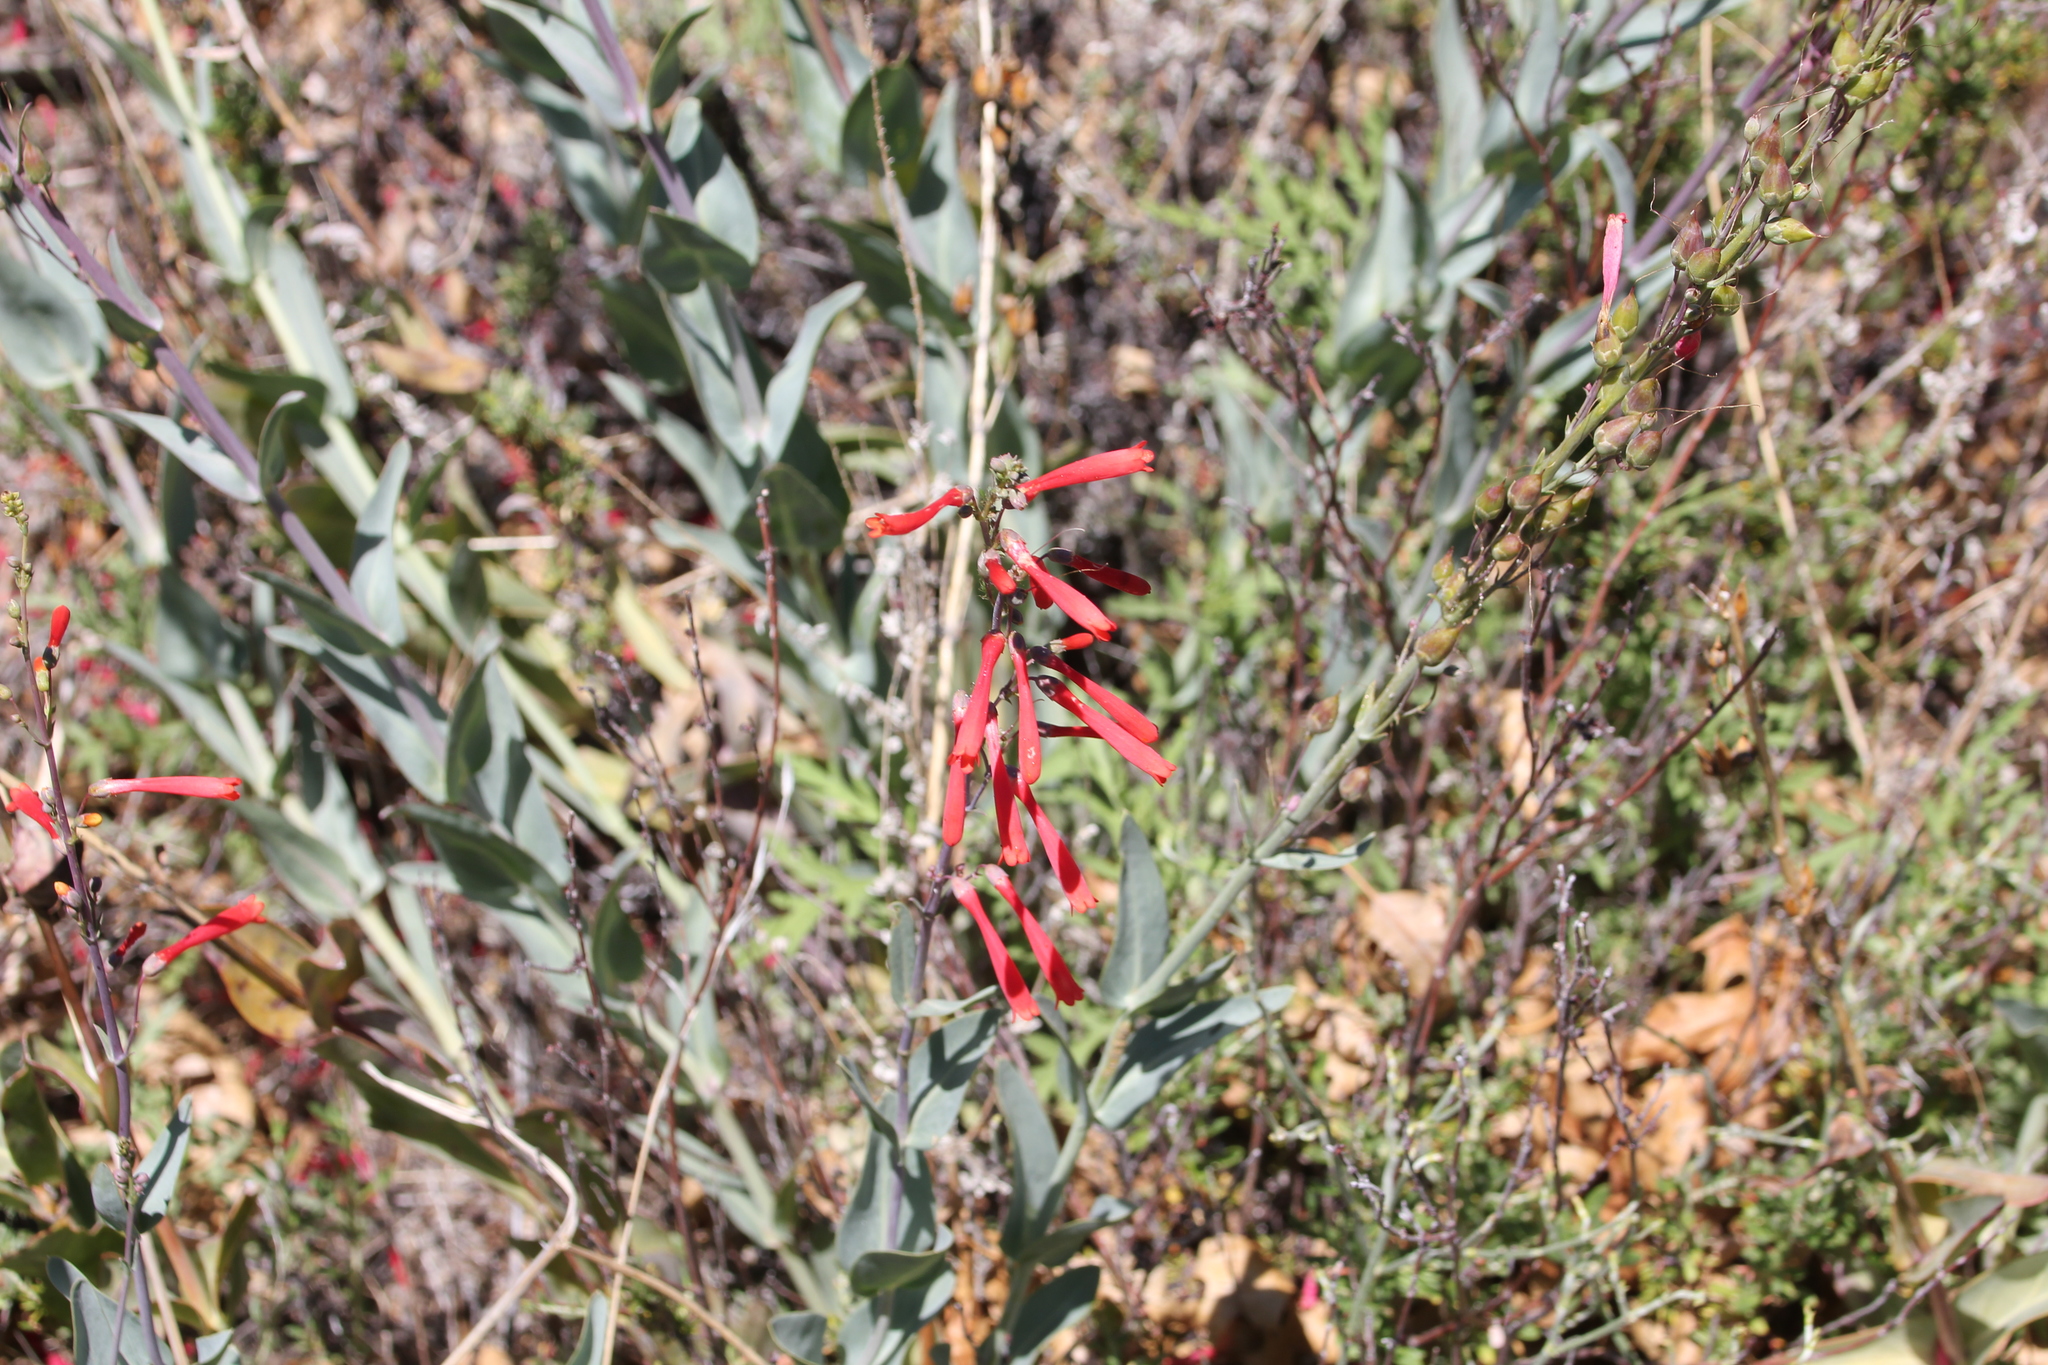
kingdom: Plantae
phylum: Tracheophyta
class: Magnoliopsida
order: Lamiales
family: Plantaginaceae
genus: Penstemon
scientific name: Penstemon centranthifolius
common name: Scarlet bugler
